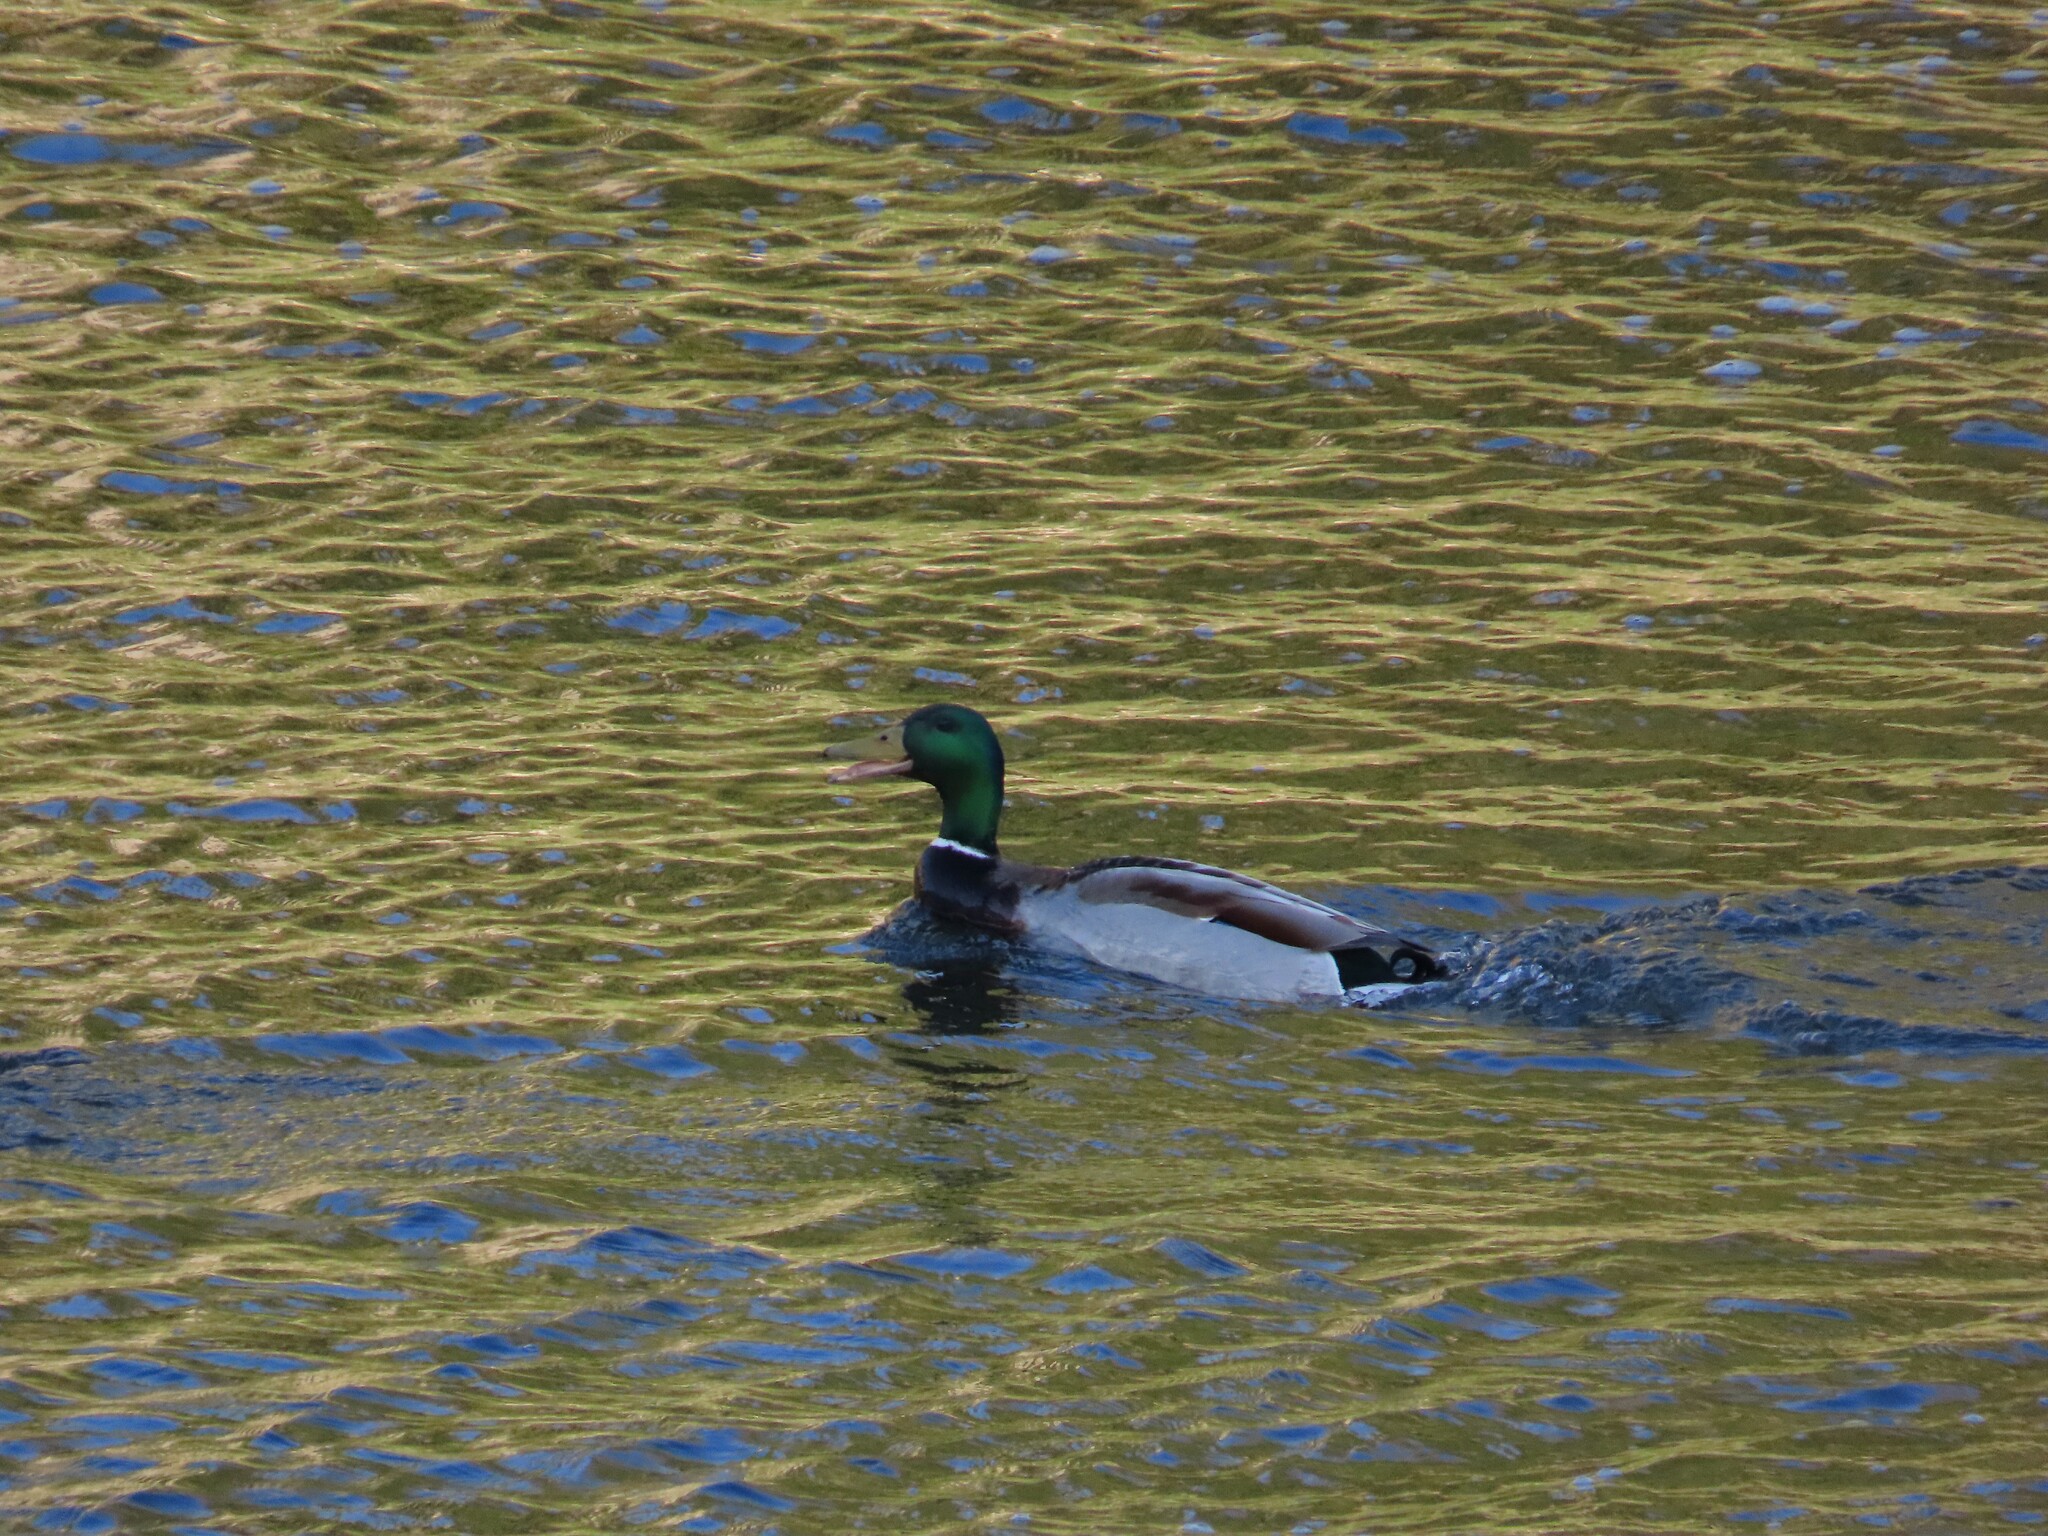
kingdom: Animalia
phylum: Chordata
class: Aves
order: Anseriformes
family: Anatidae
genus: Anas
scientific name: Anas platyrhynchos
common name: Mallard
